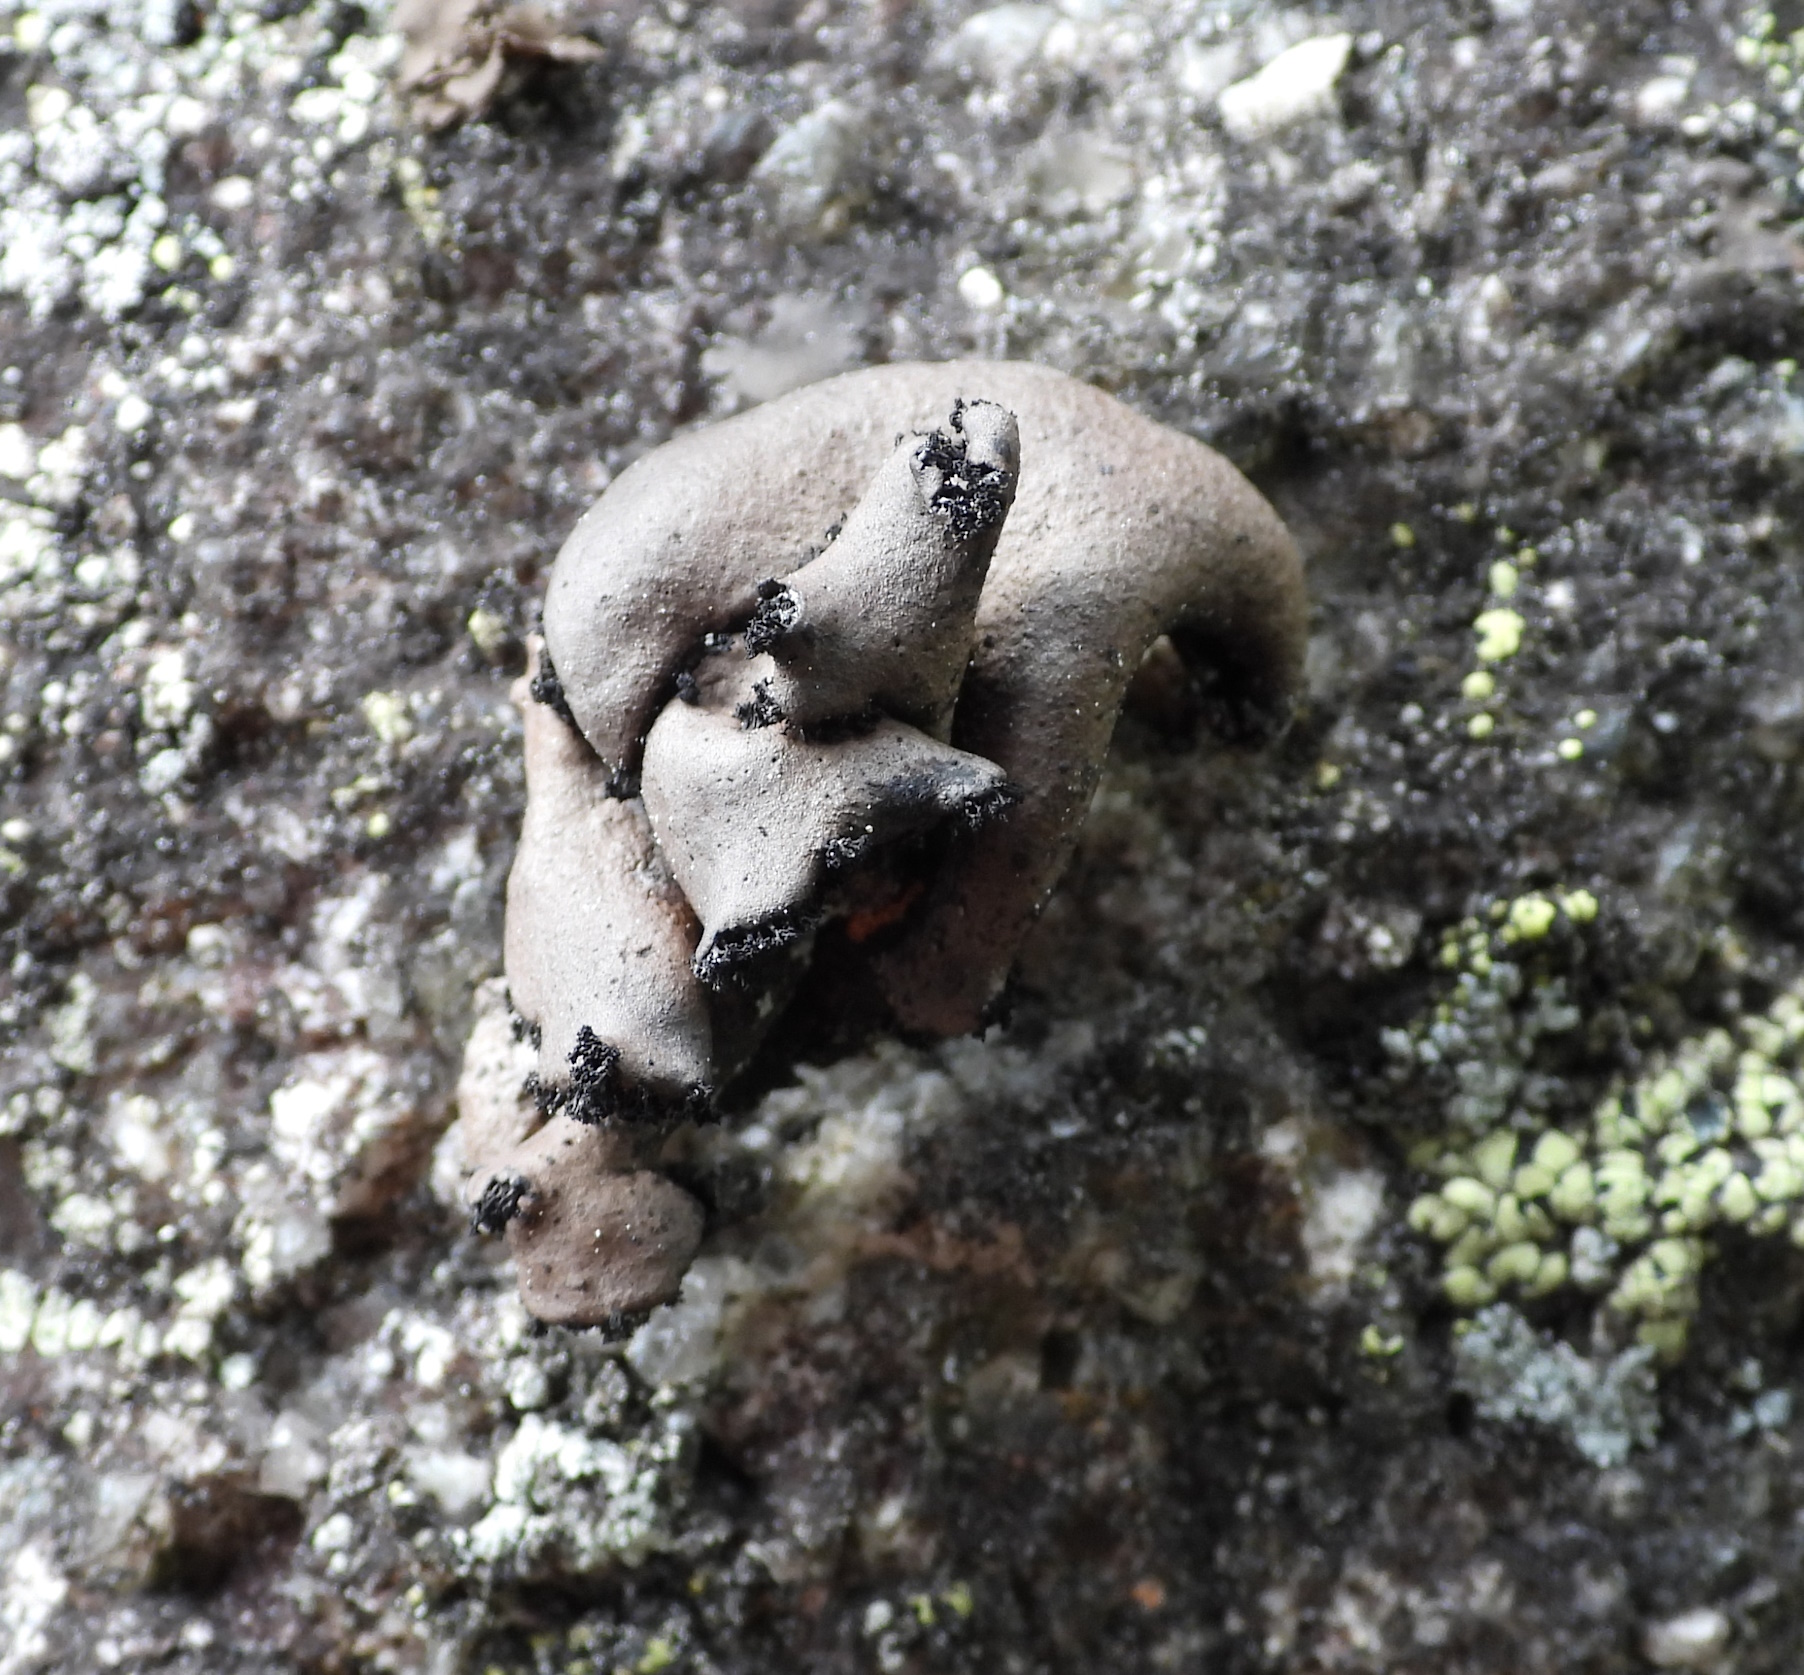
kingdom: Fungi
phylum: Ascomycota
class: Lecanoromycetes
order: Umbilicariales
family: Umbilicariaceae
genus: Umbilicaria
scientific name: Umbilicaria polyrrhiza
